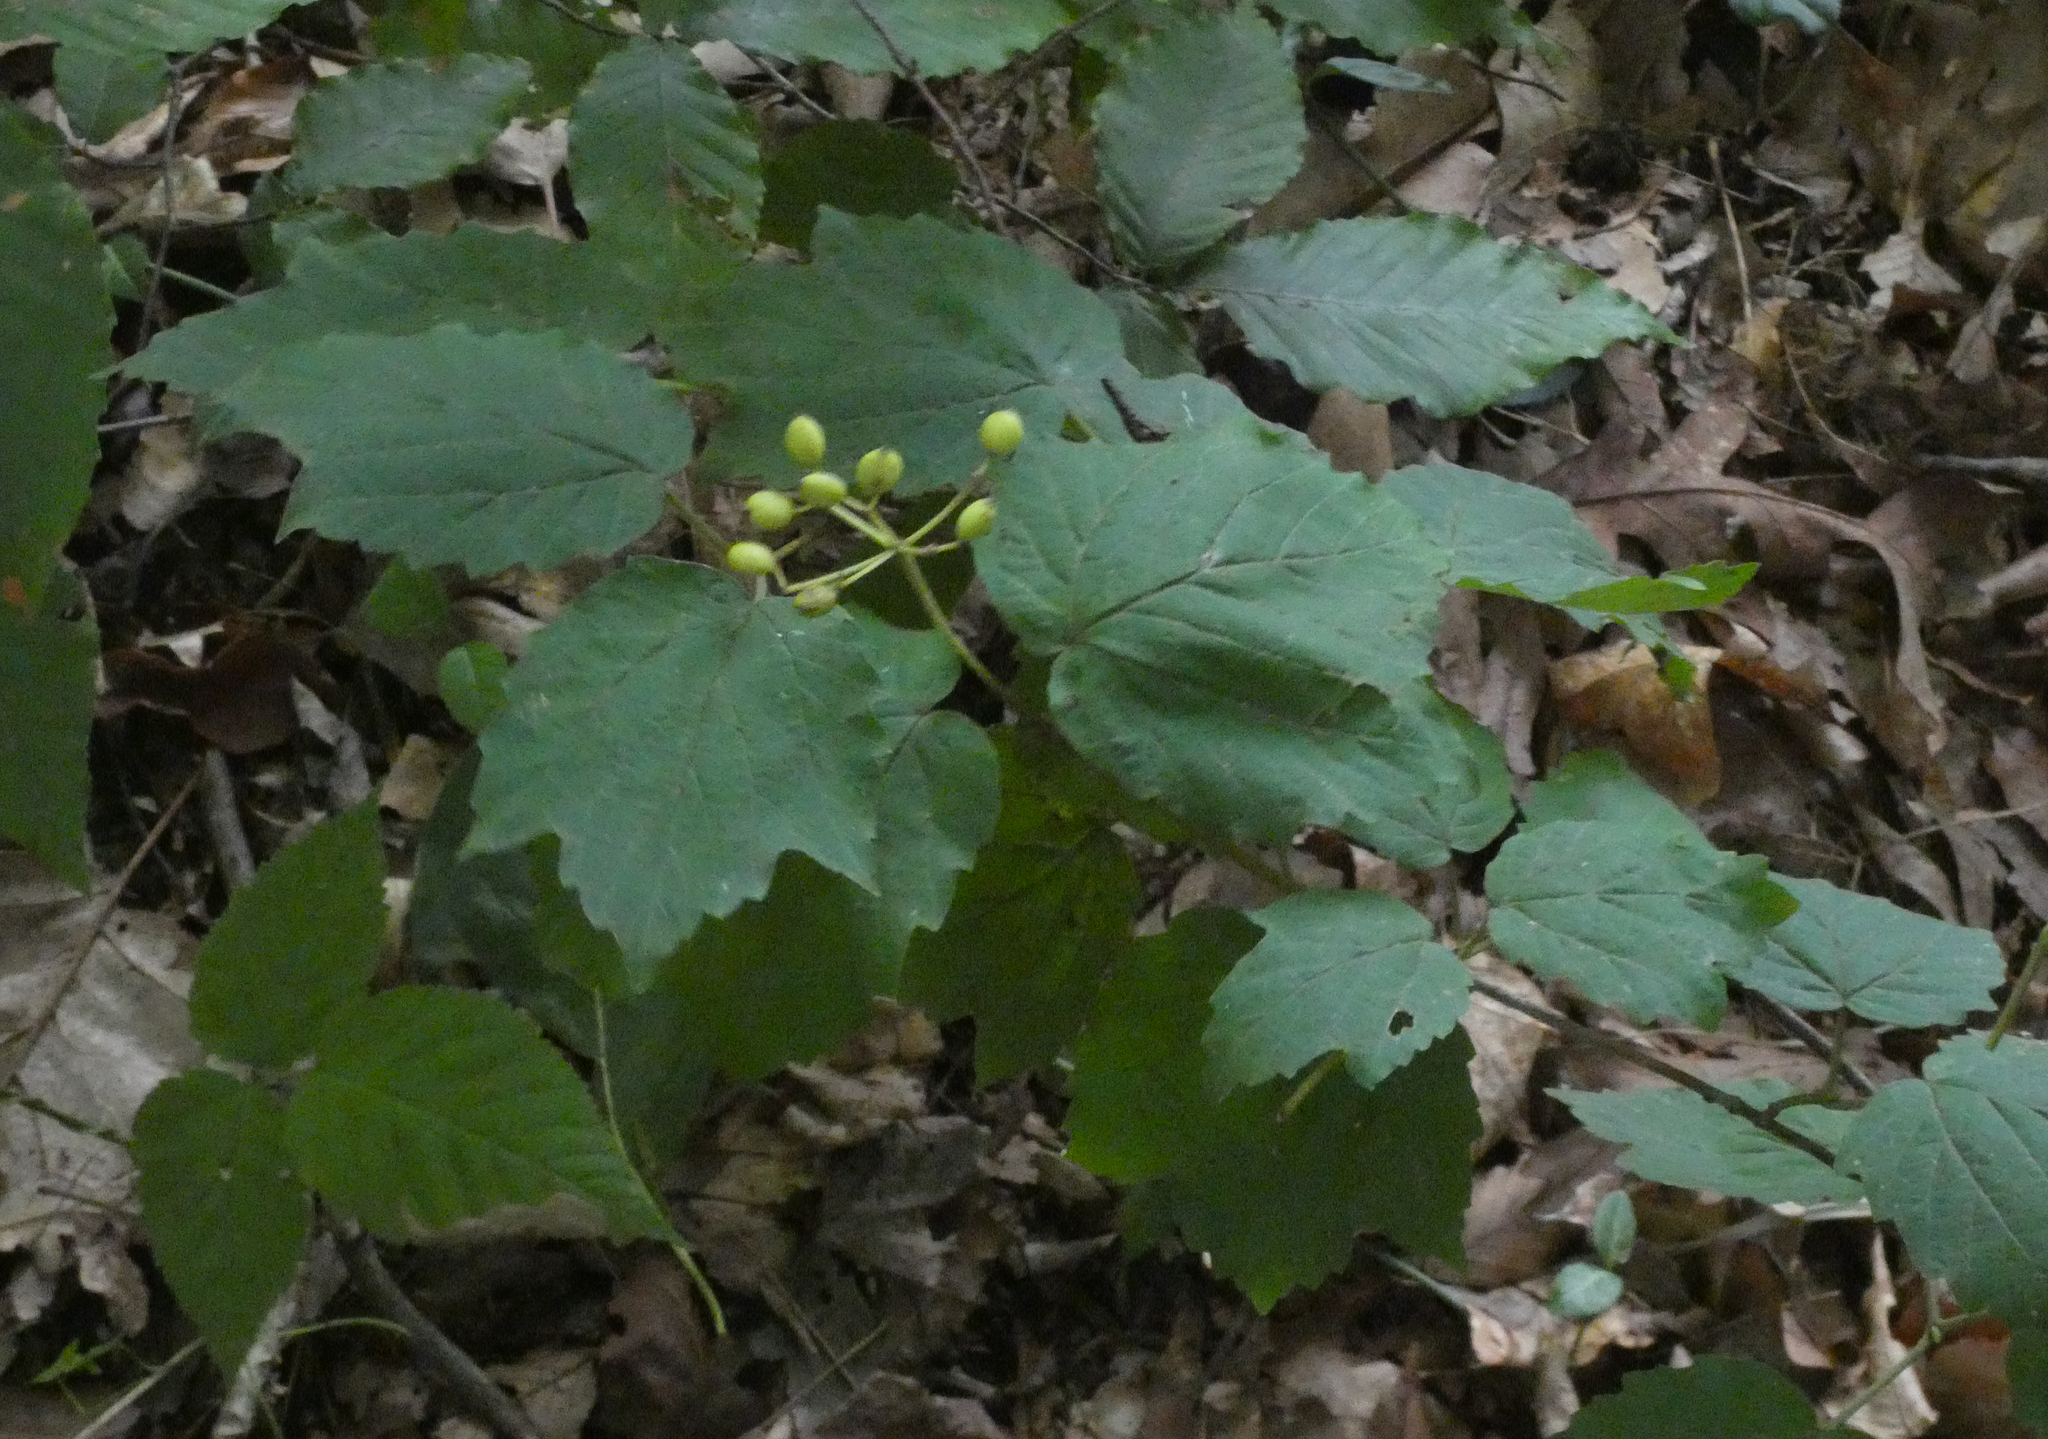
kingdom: Plantae
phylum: Tracheophyta
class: Magnoliopsida
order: Dipsacales
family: Viburnaceae
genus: Viburnum
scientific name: Viburnum acerifolium
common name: Dockmackie
